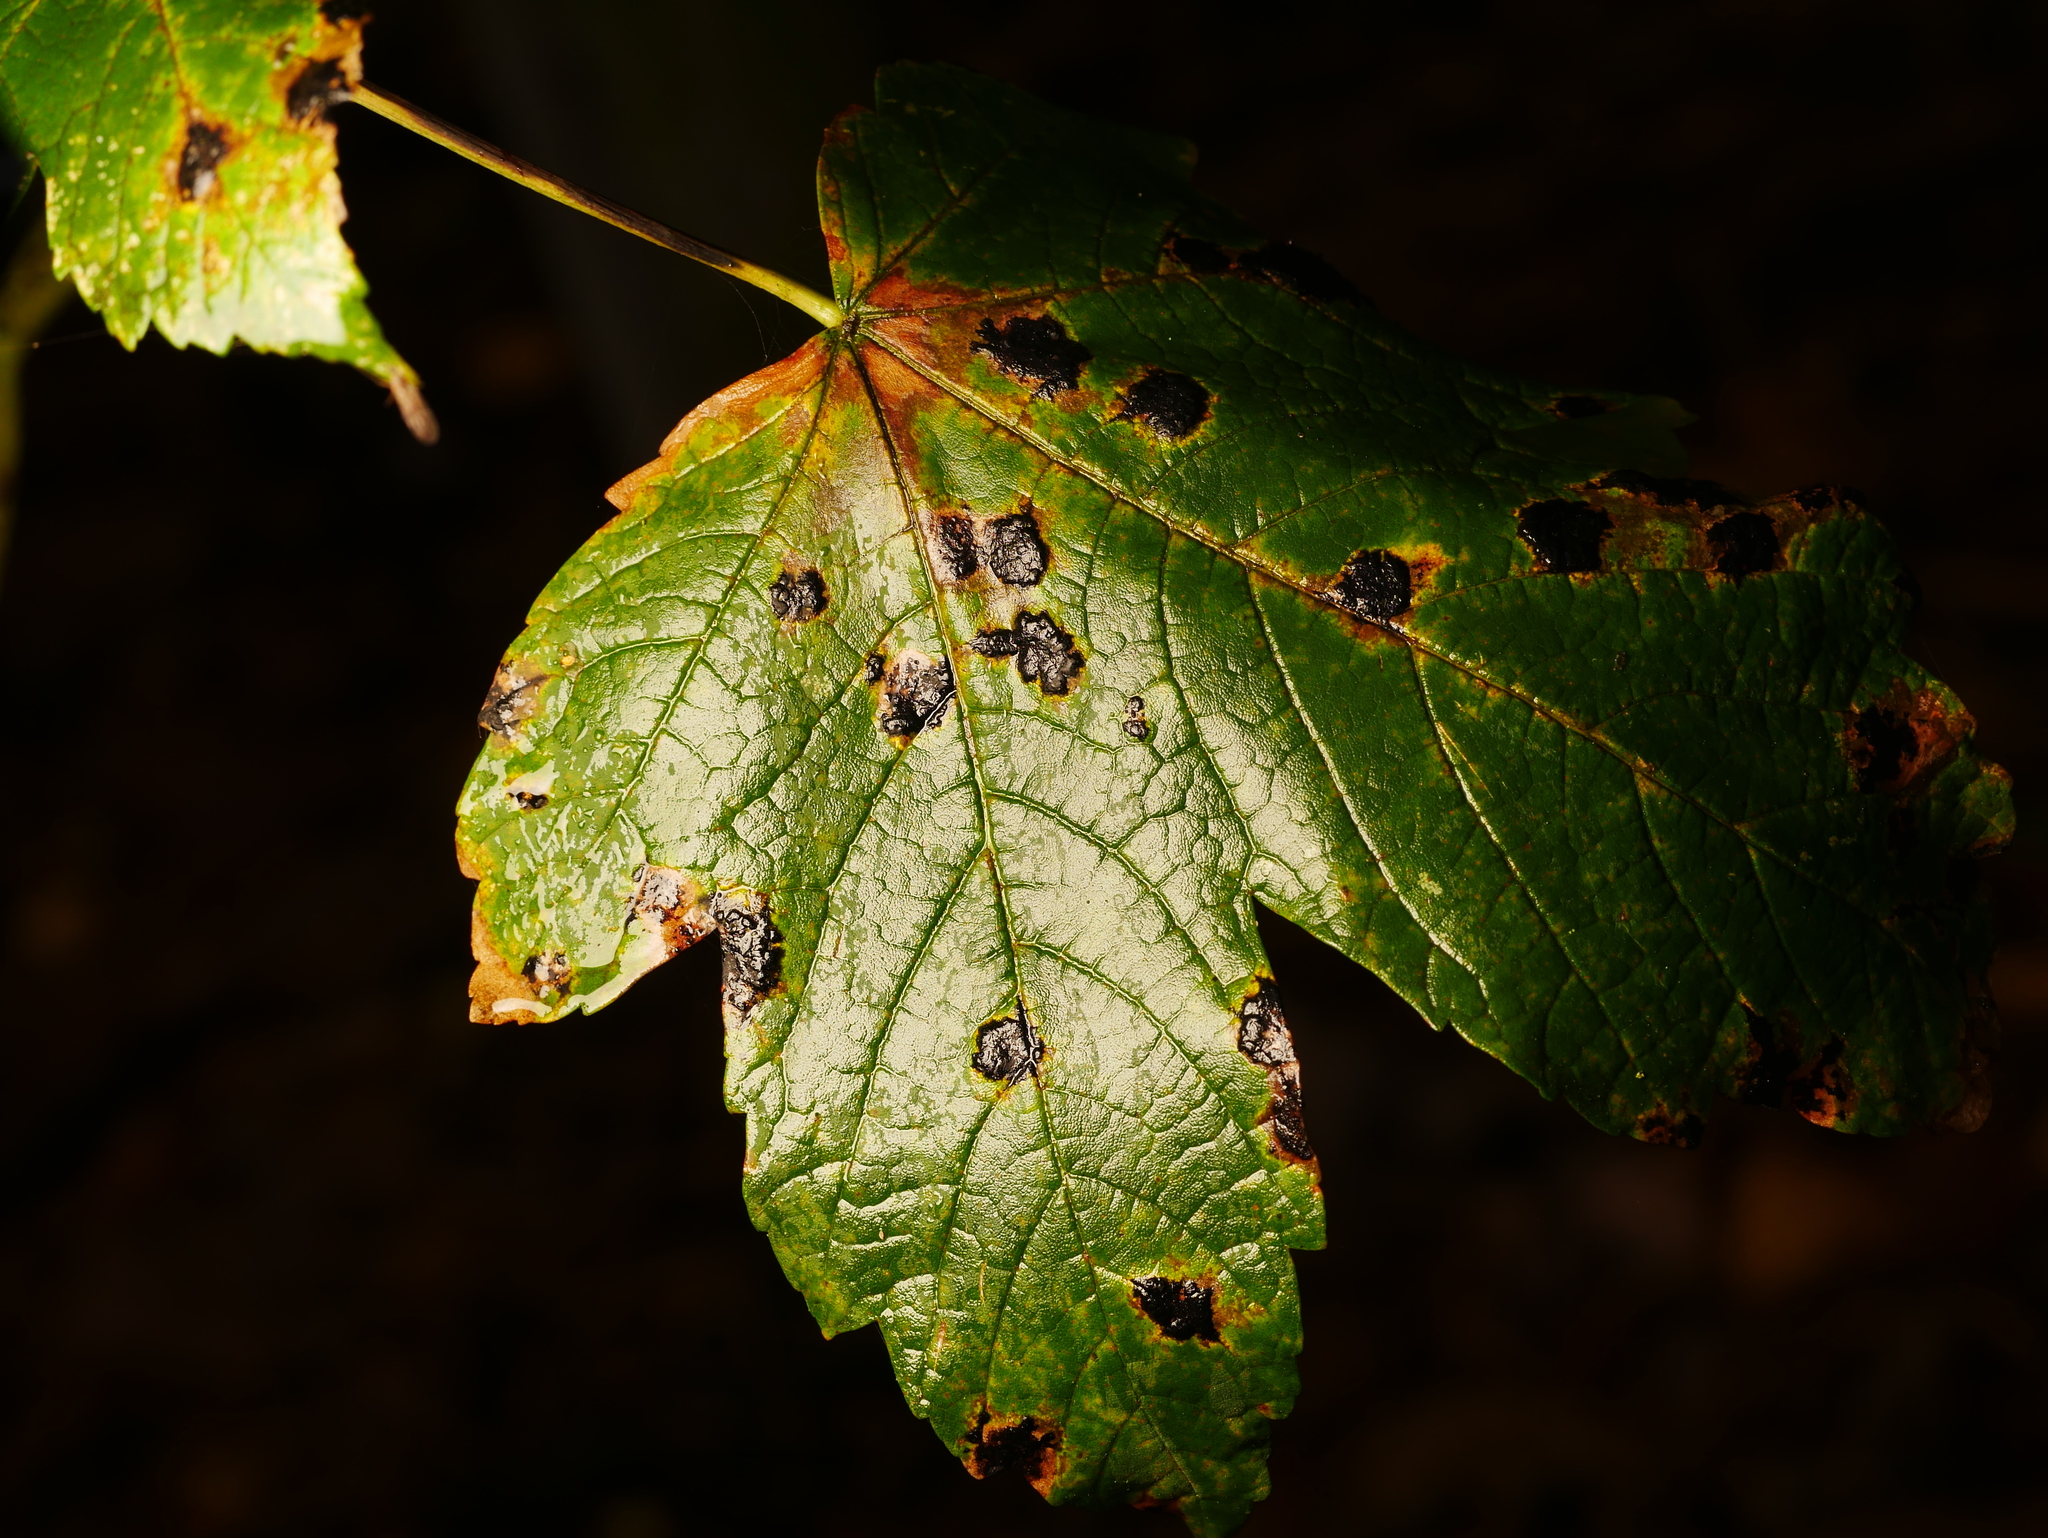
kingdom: Fungi
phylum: Ascomycota
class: Leotiomycetes
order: Rhytismatales
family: Rhytismataceae
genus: Rhytisma
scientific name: Rhytisma acerinum
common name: European tar spot
